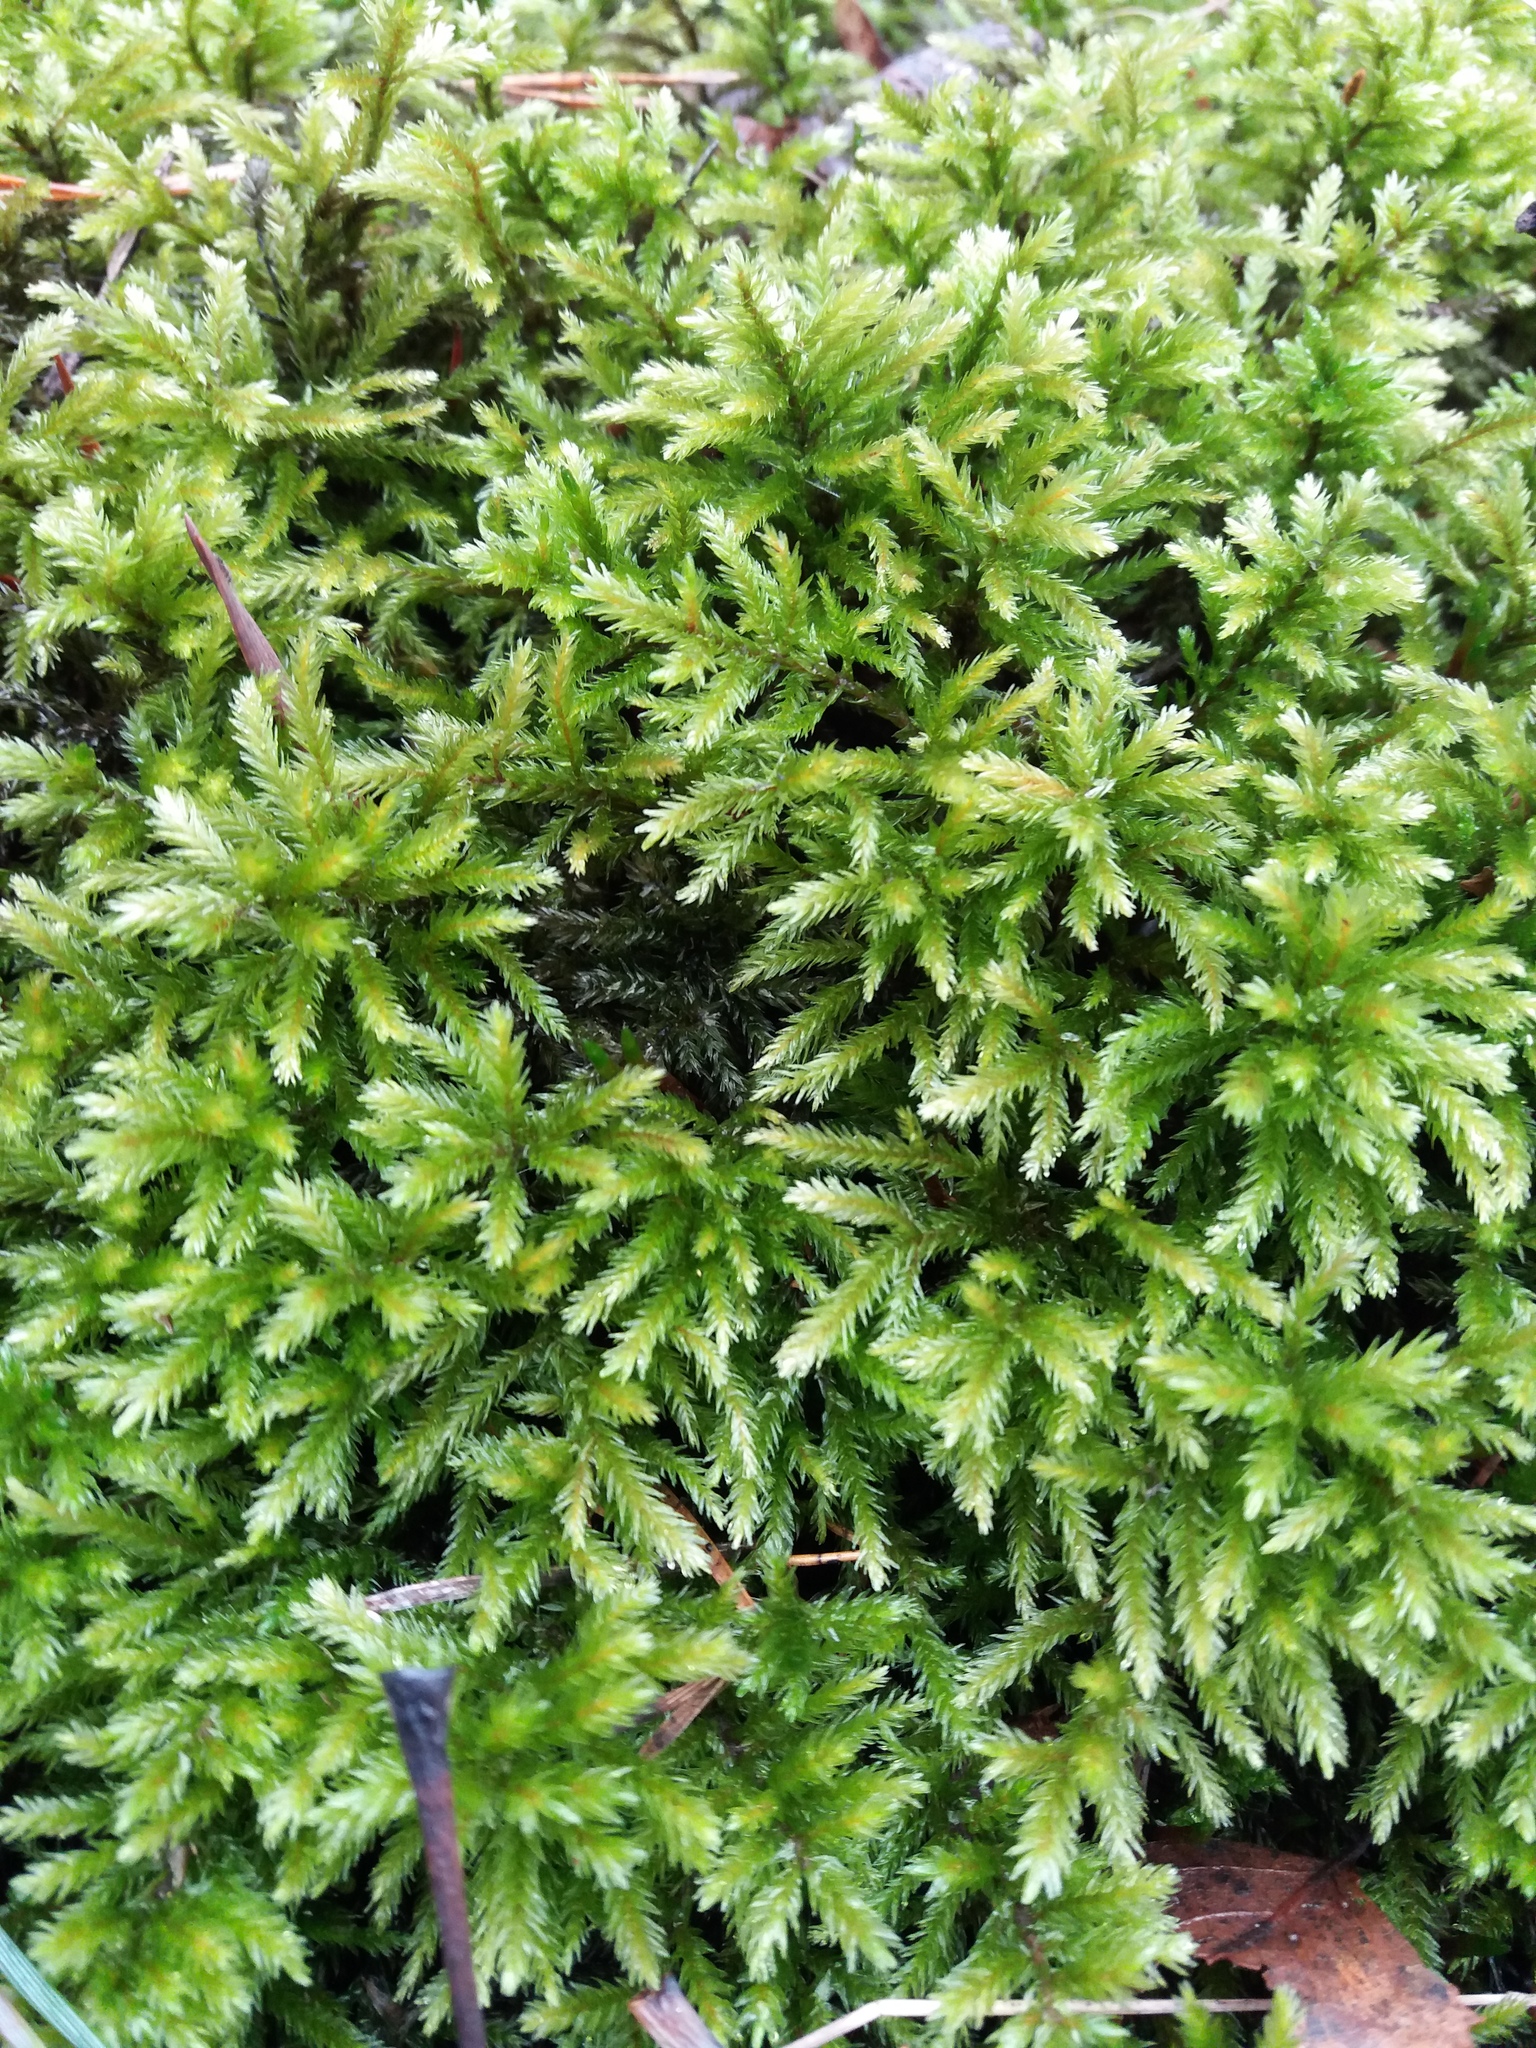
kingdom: Plantae
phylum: Bryophyta
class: Bryopsida
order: Hypnales
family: Climaciaceae
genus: Climacium
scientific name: Climacium dendroides
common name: Northern tree moss
